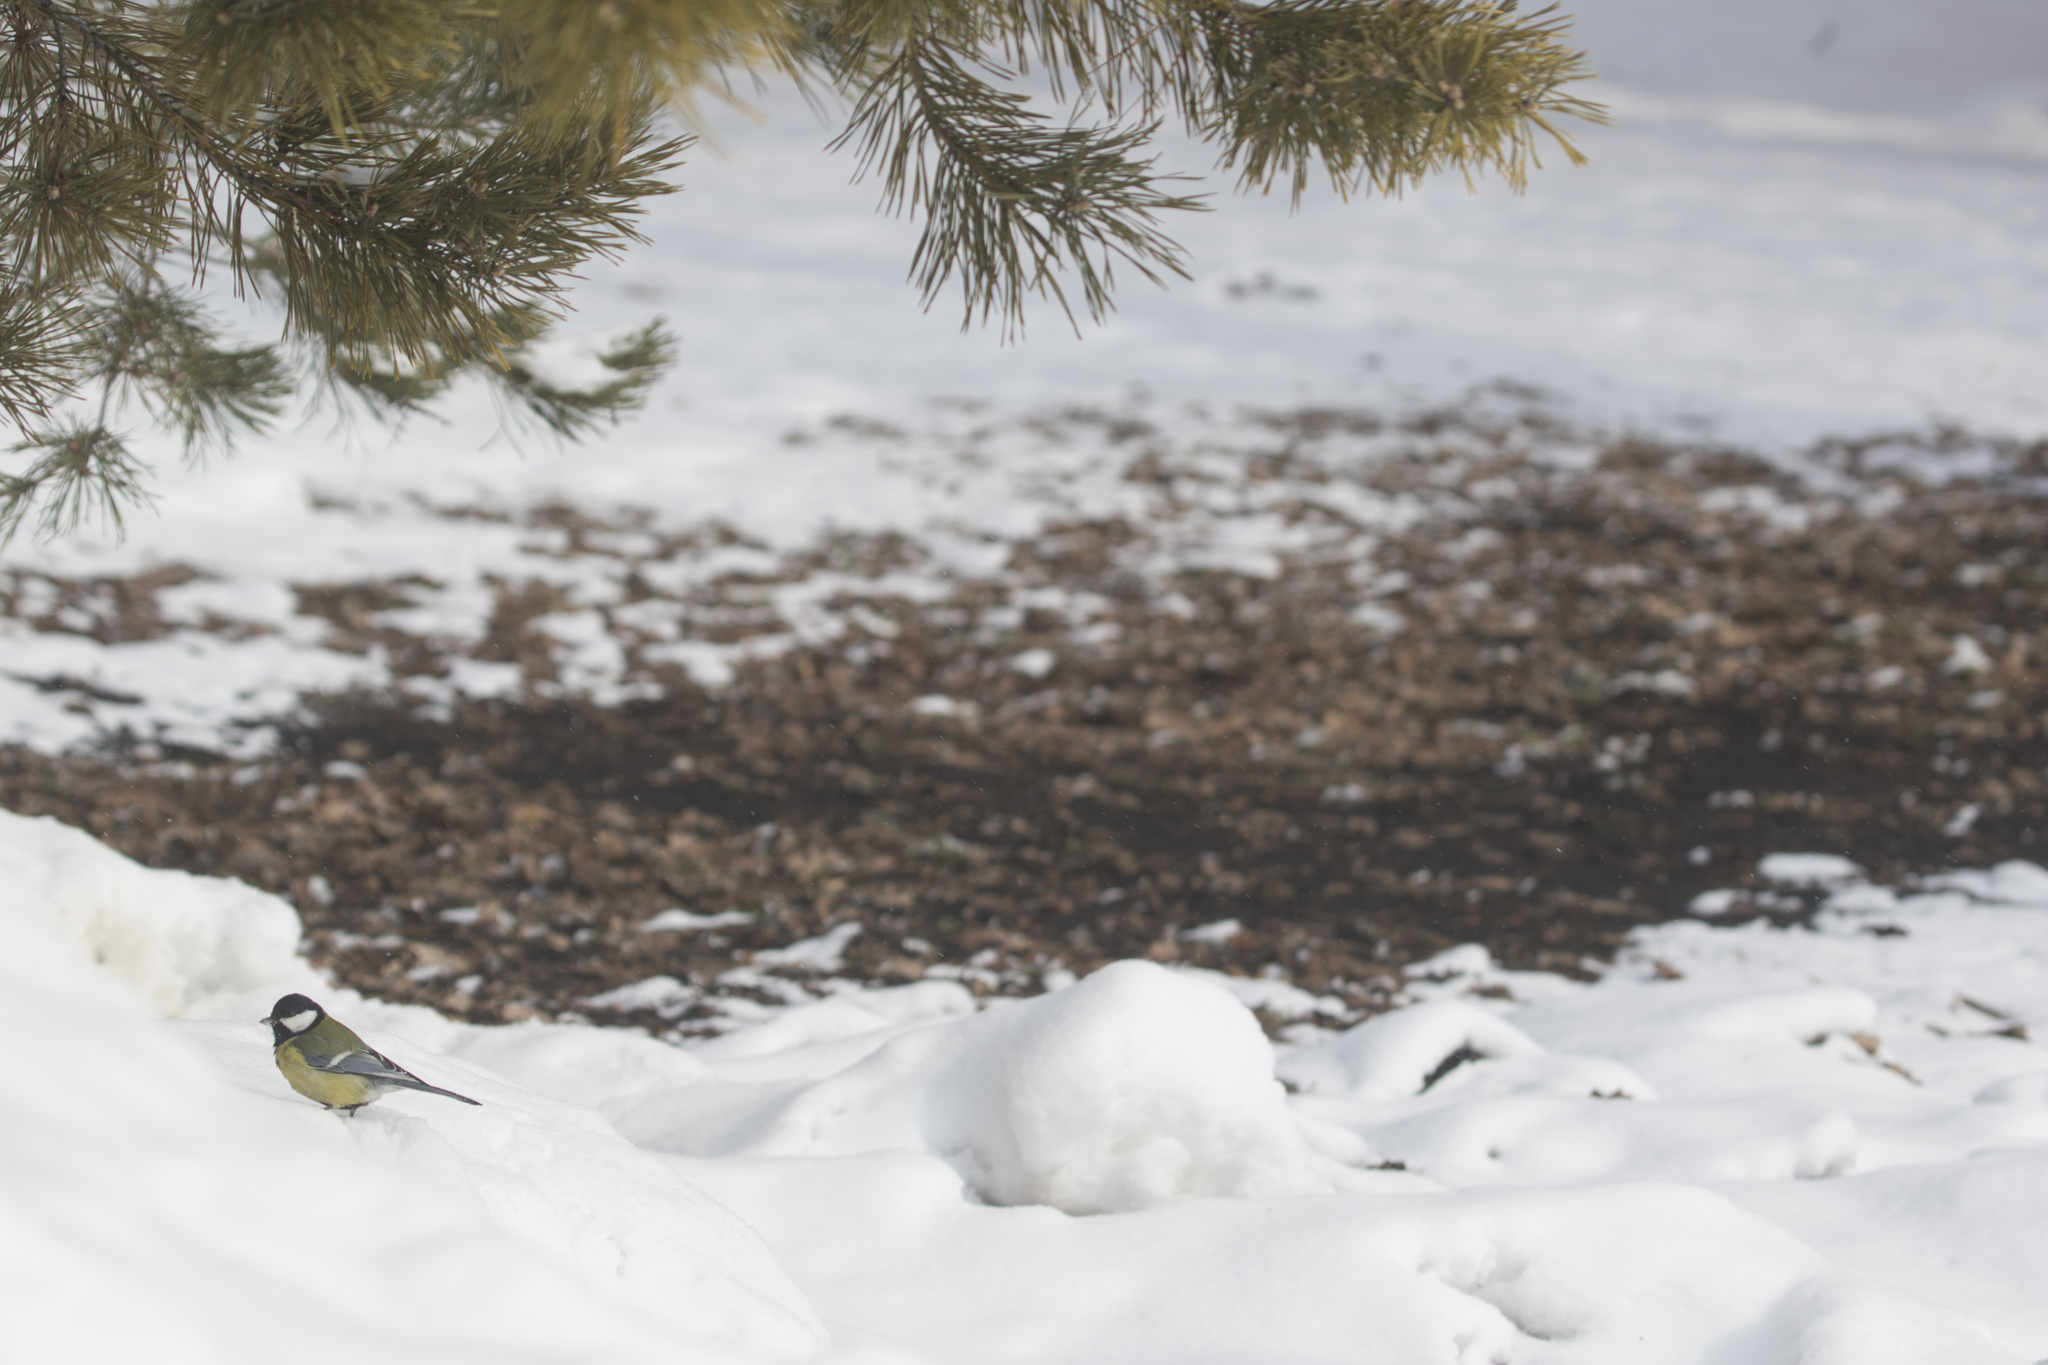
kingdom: Animalia
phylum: Chordata
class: Aves
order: Passeriformes
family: Paridae
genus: Parus
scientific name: Parus major
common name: Great tit
